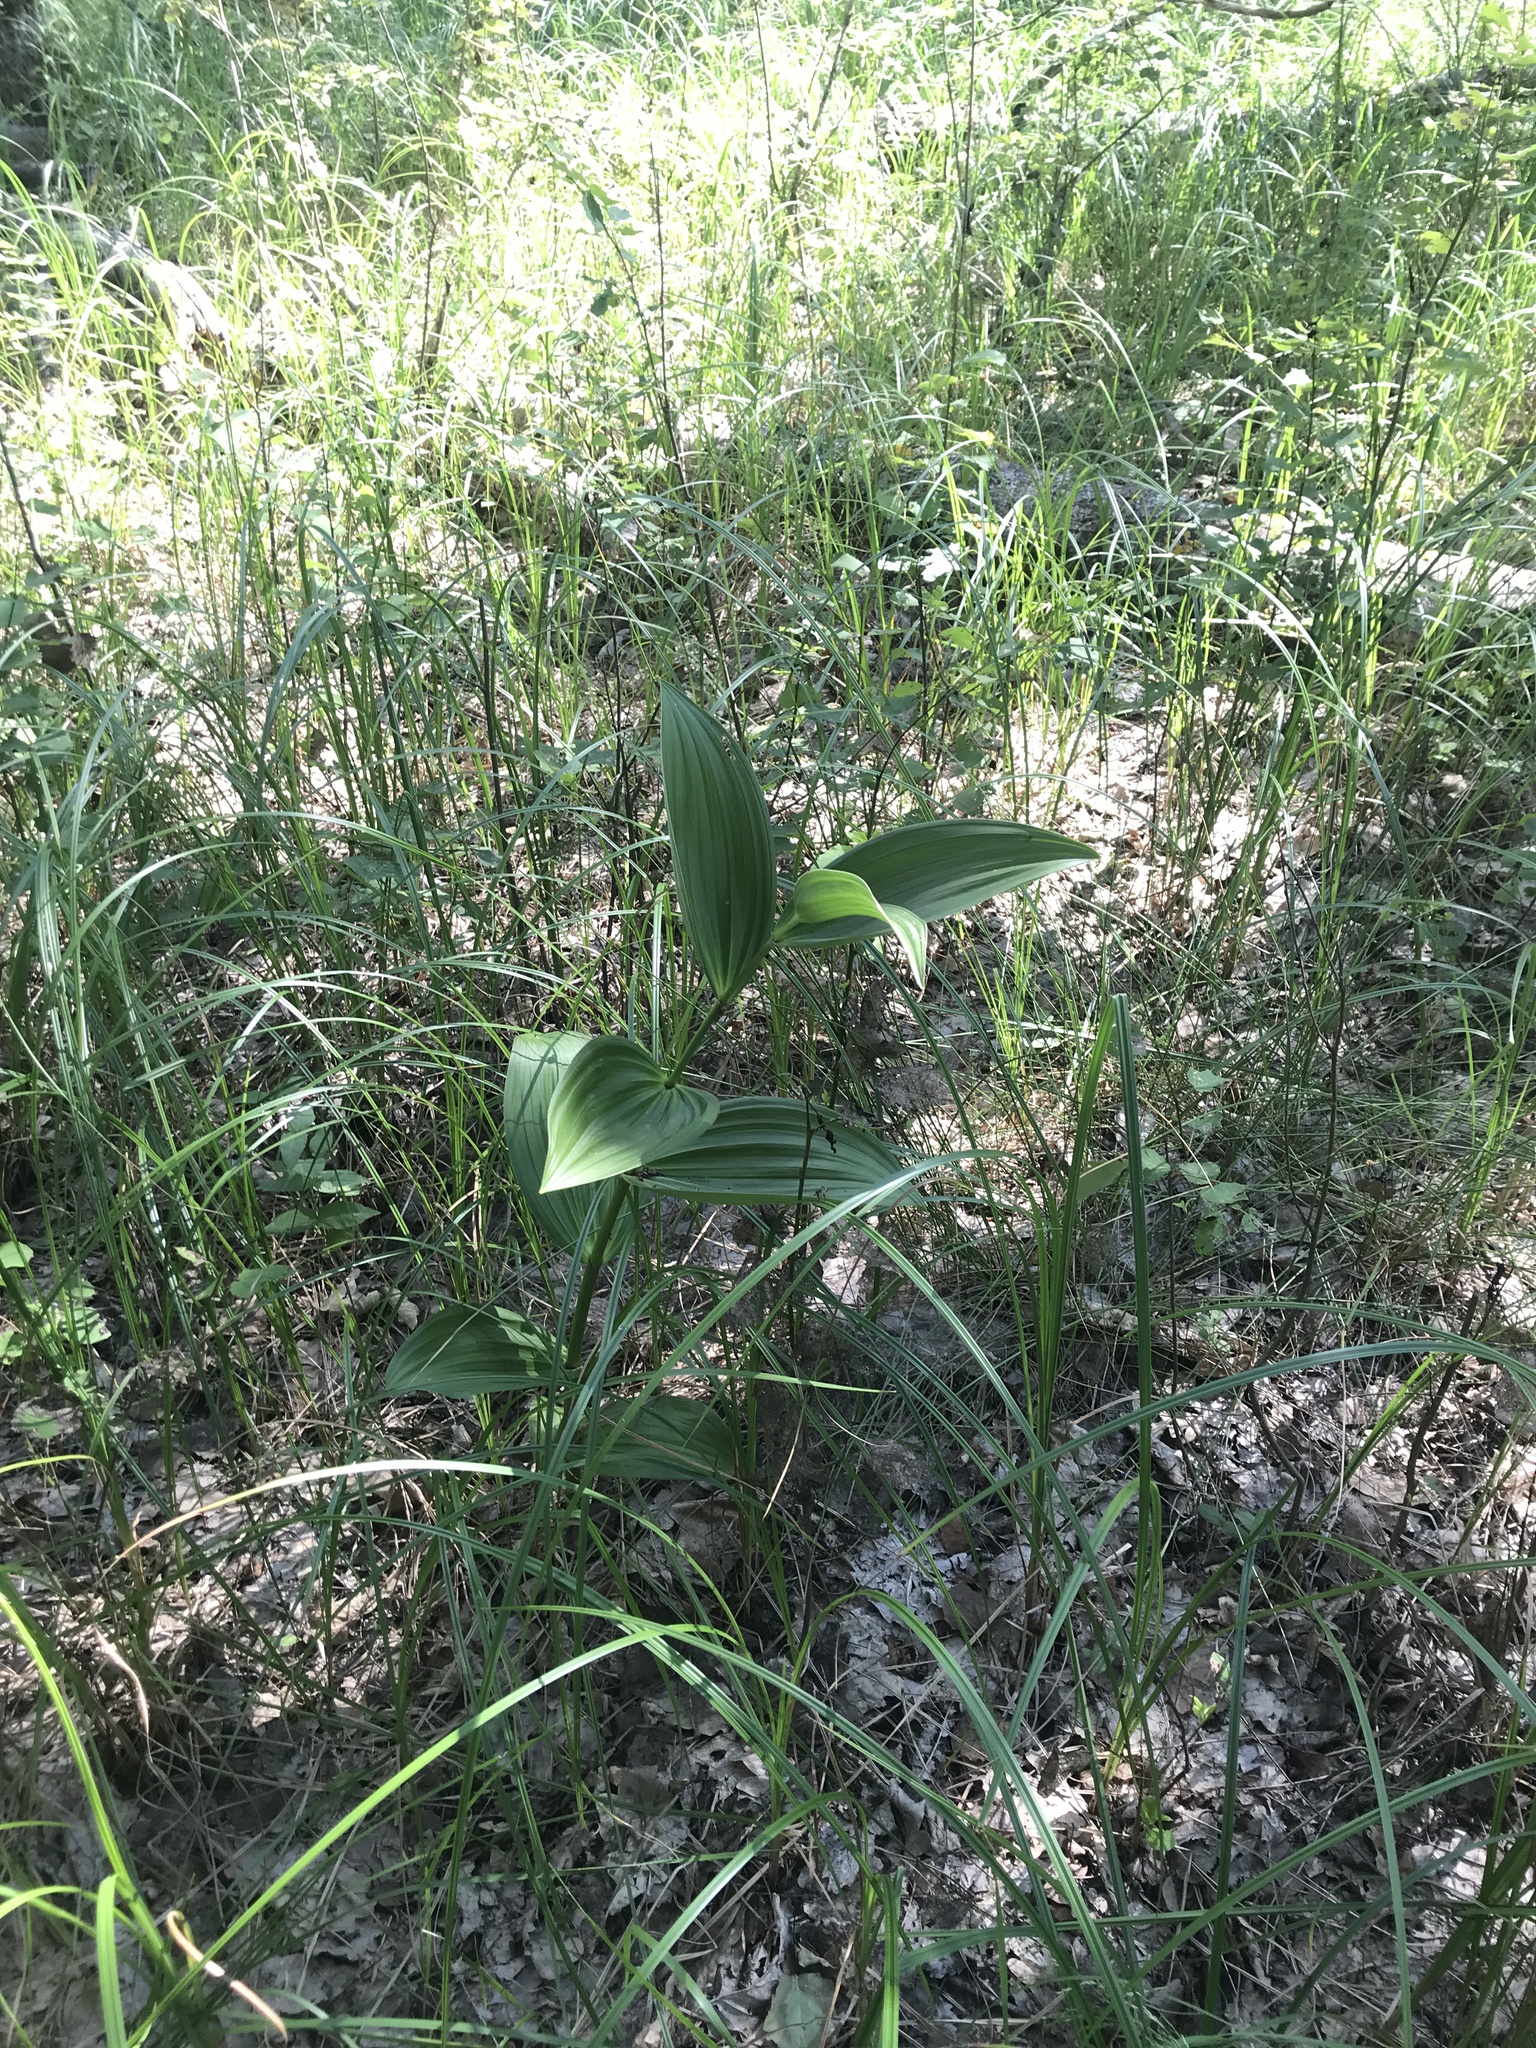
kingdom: Plantae
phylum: Tracheophyta
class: Liliopsida
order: Liliales
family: Melanthiaceae
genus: Veratrum
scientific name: Veratrum lobelianum
